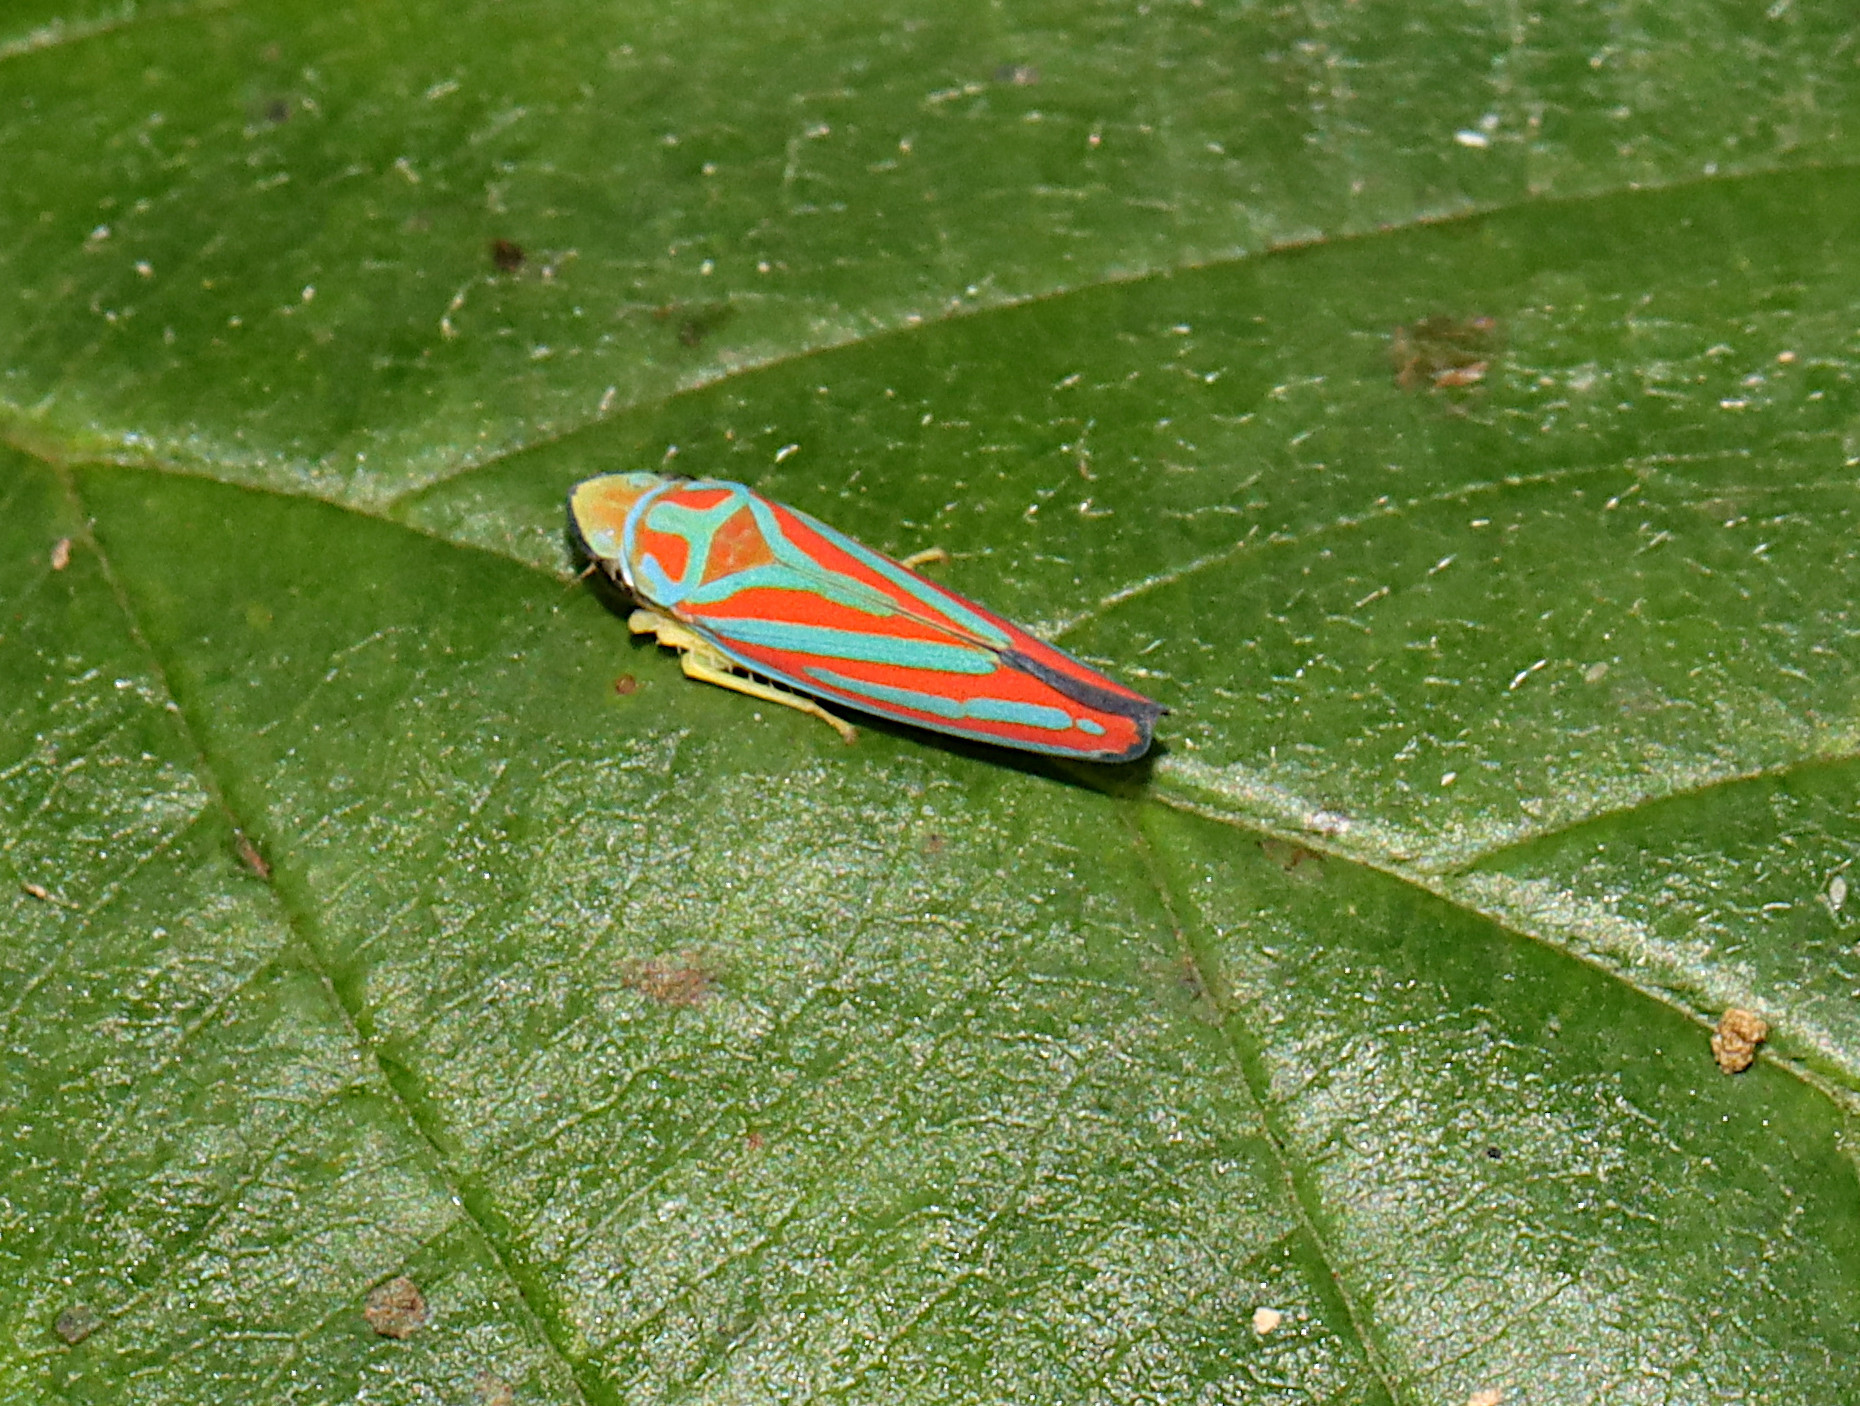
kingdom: Animalia
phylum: Arthropoda
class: Insecta
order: Hemiptera
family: Cicadellidae
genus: Graphocephala
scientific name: Graphocephala coccinea
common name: Candy-striped leafhopper
